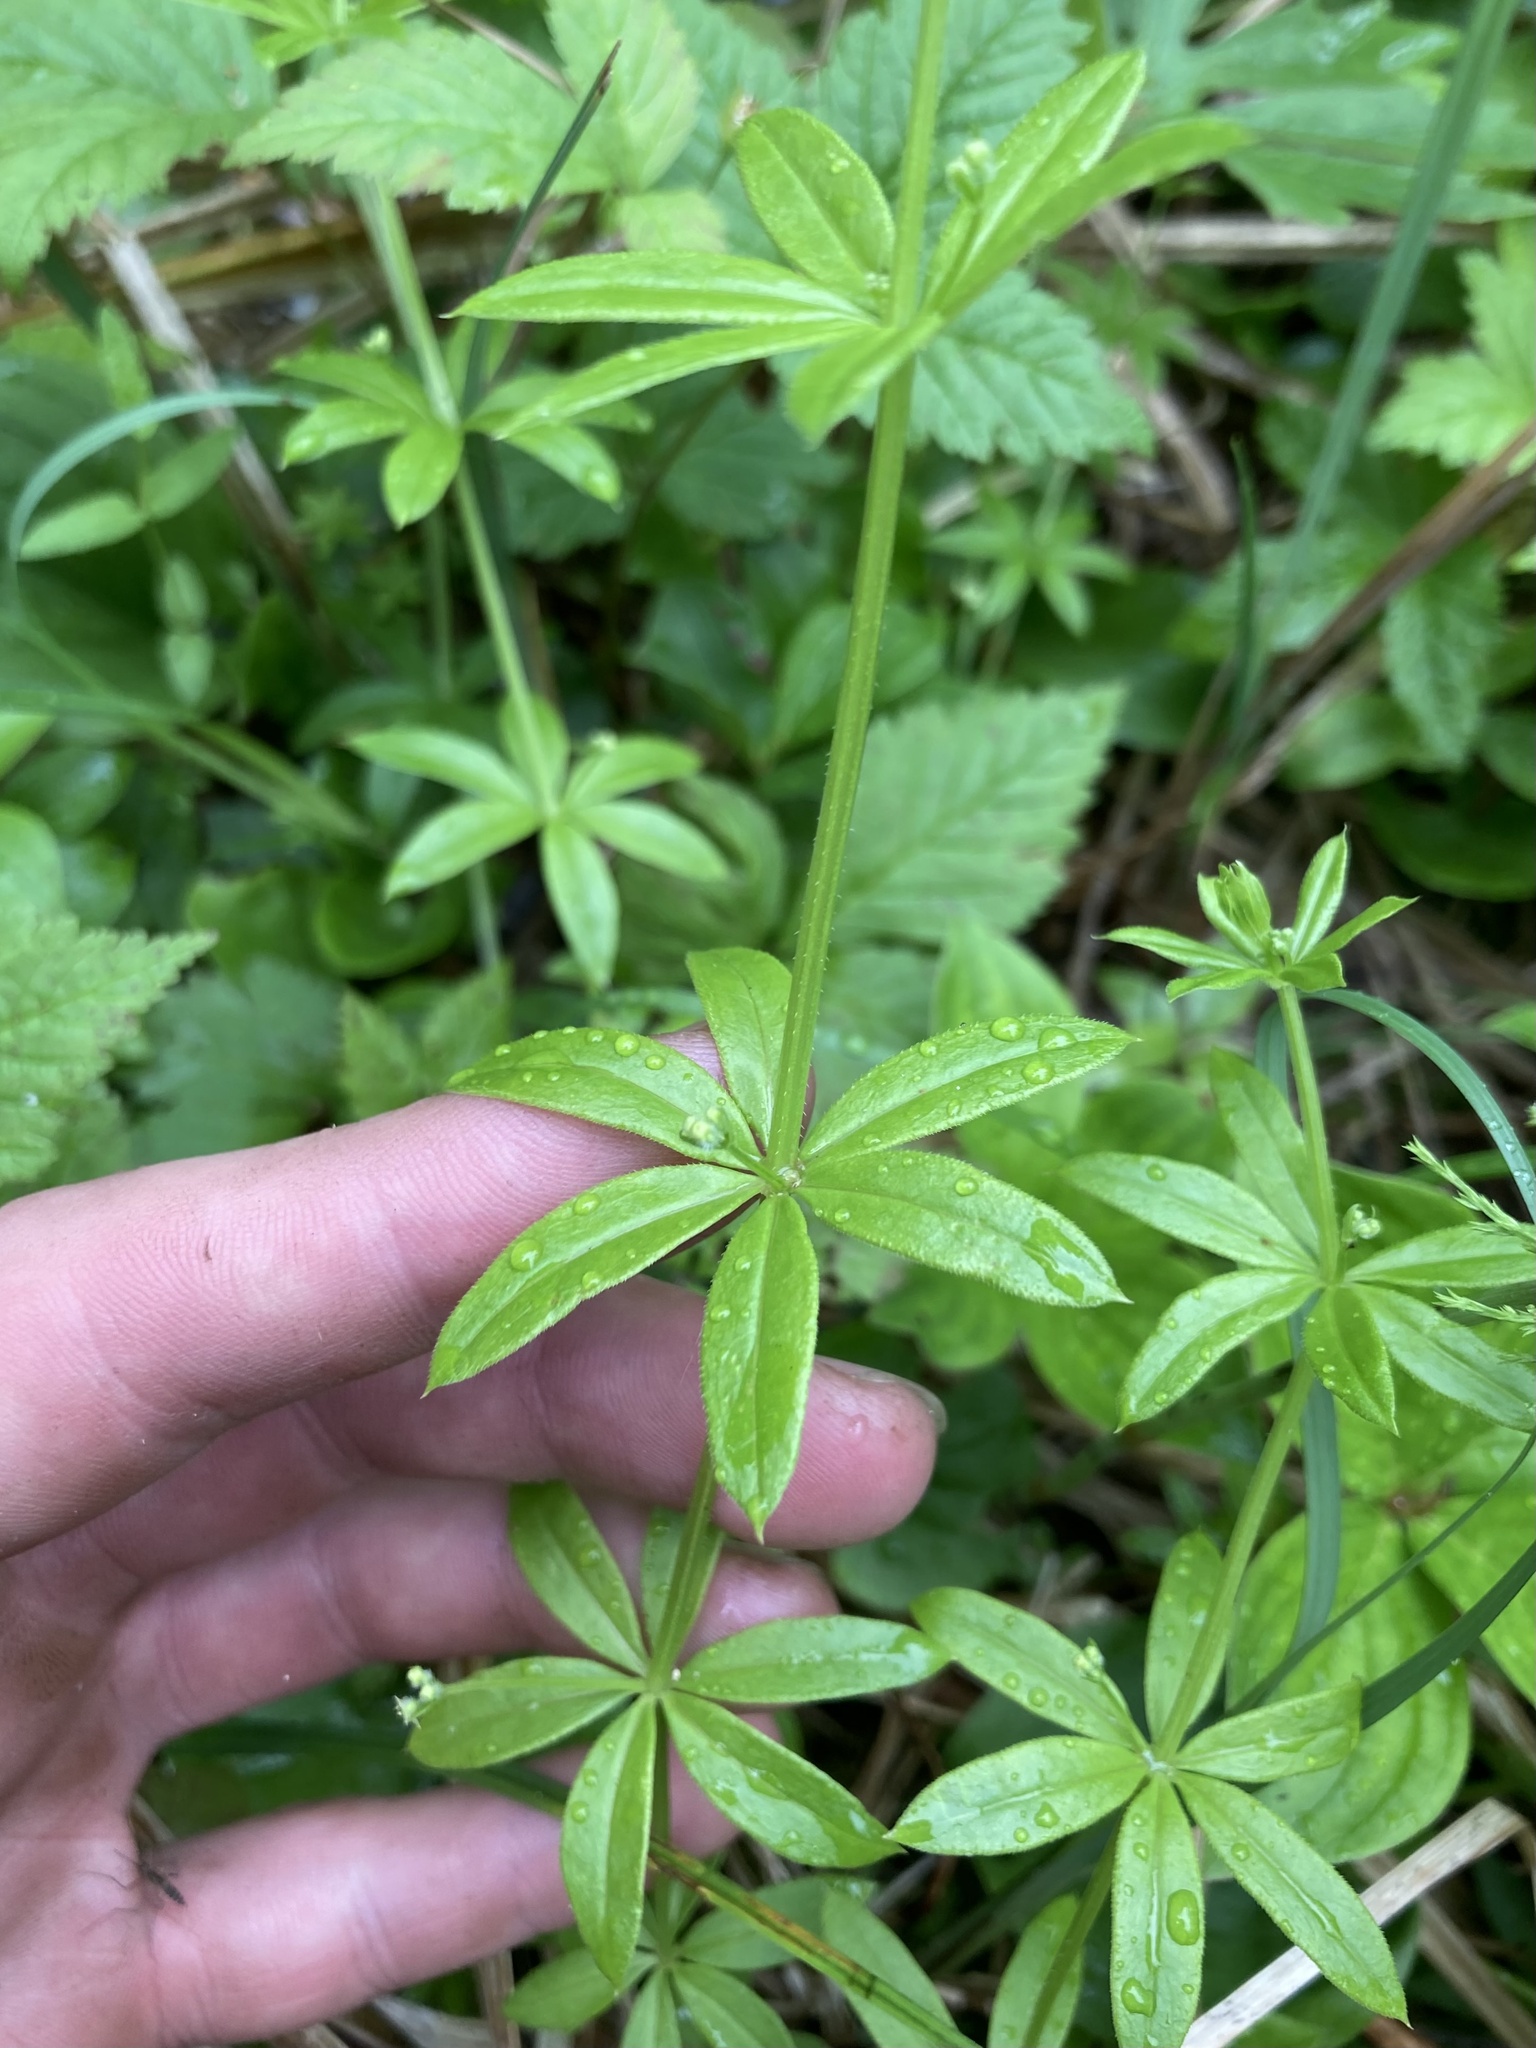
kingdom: Plantae
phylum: Tracheophyta
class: Magnoliopsida
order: Gentianales
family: Rubiaceae
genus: Galium
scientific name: Galium triflorum
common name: Fragrant bedstraw
